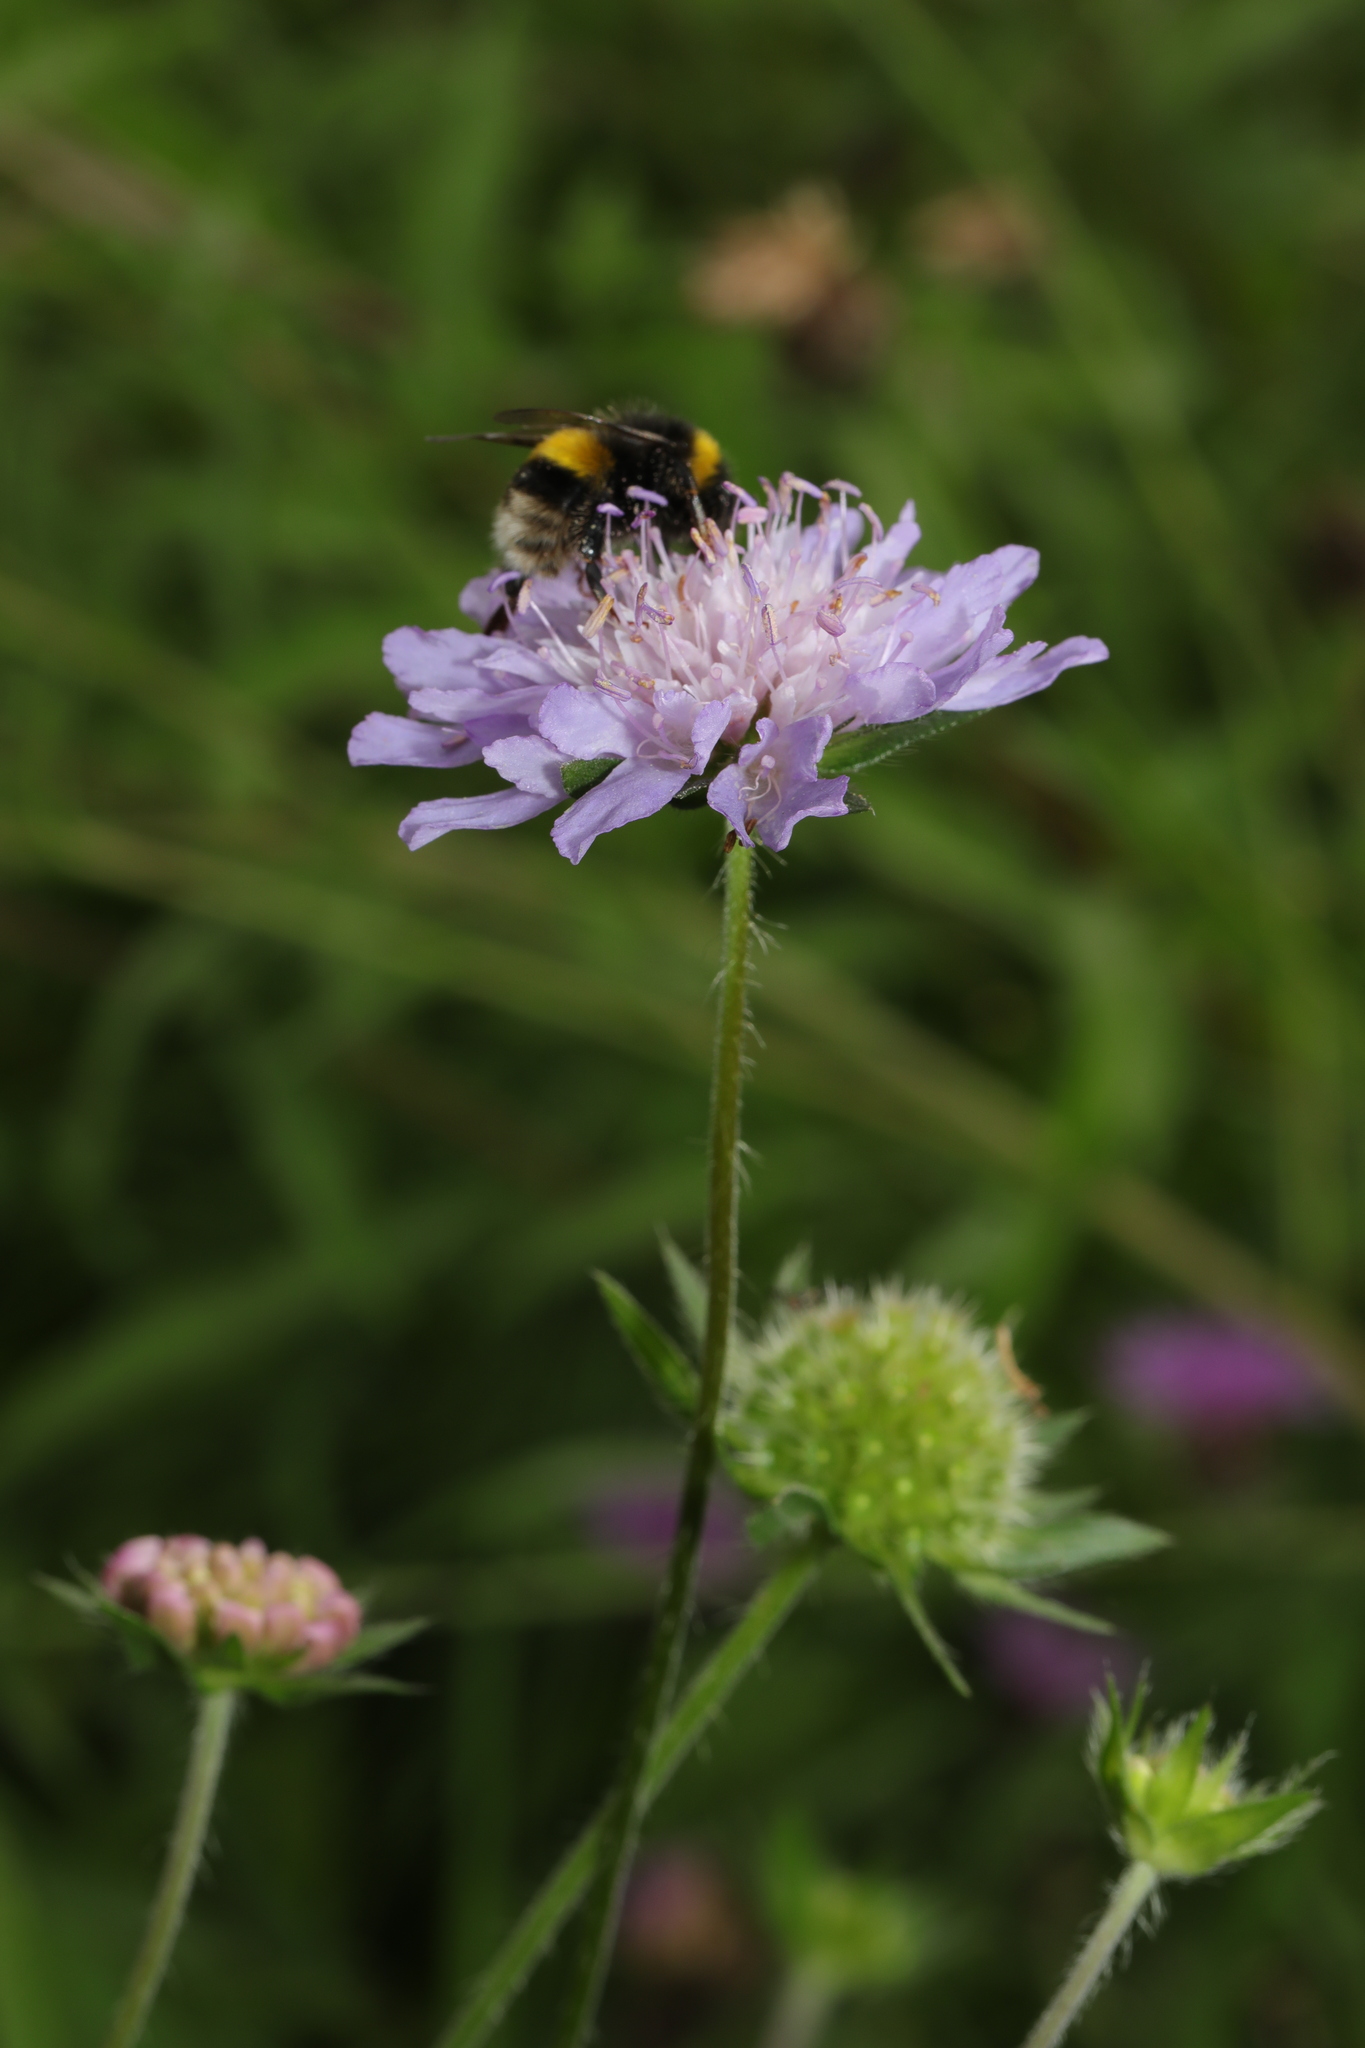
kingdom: Plantae
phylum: Tracheophyta
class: Magnoliopsida
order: Dipsacales
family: Caprifoliaceae
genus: Knautia
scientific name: Knautia arvensis
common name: Field scabiosa
